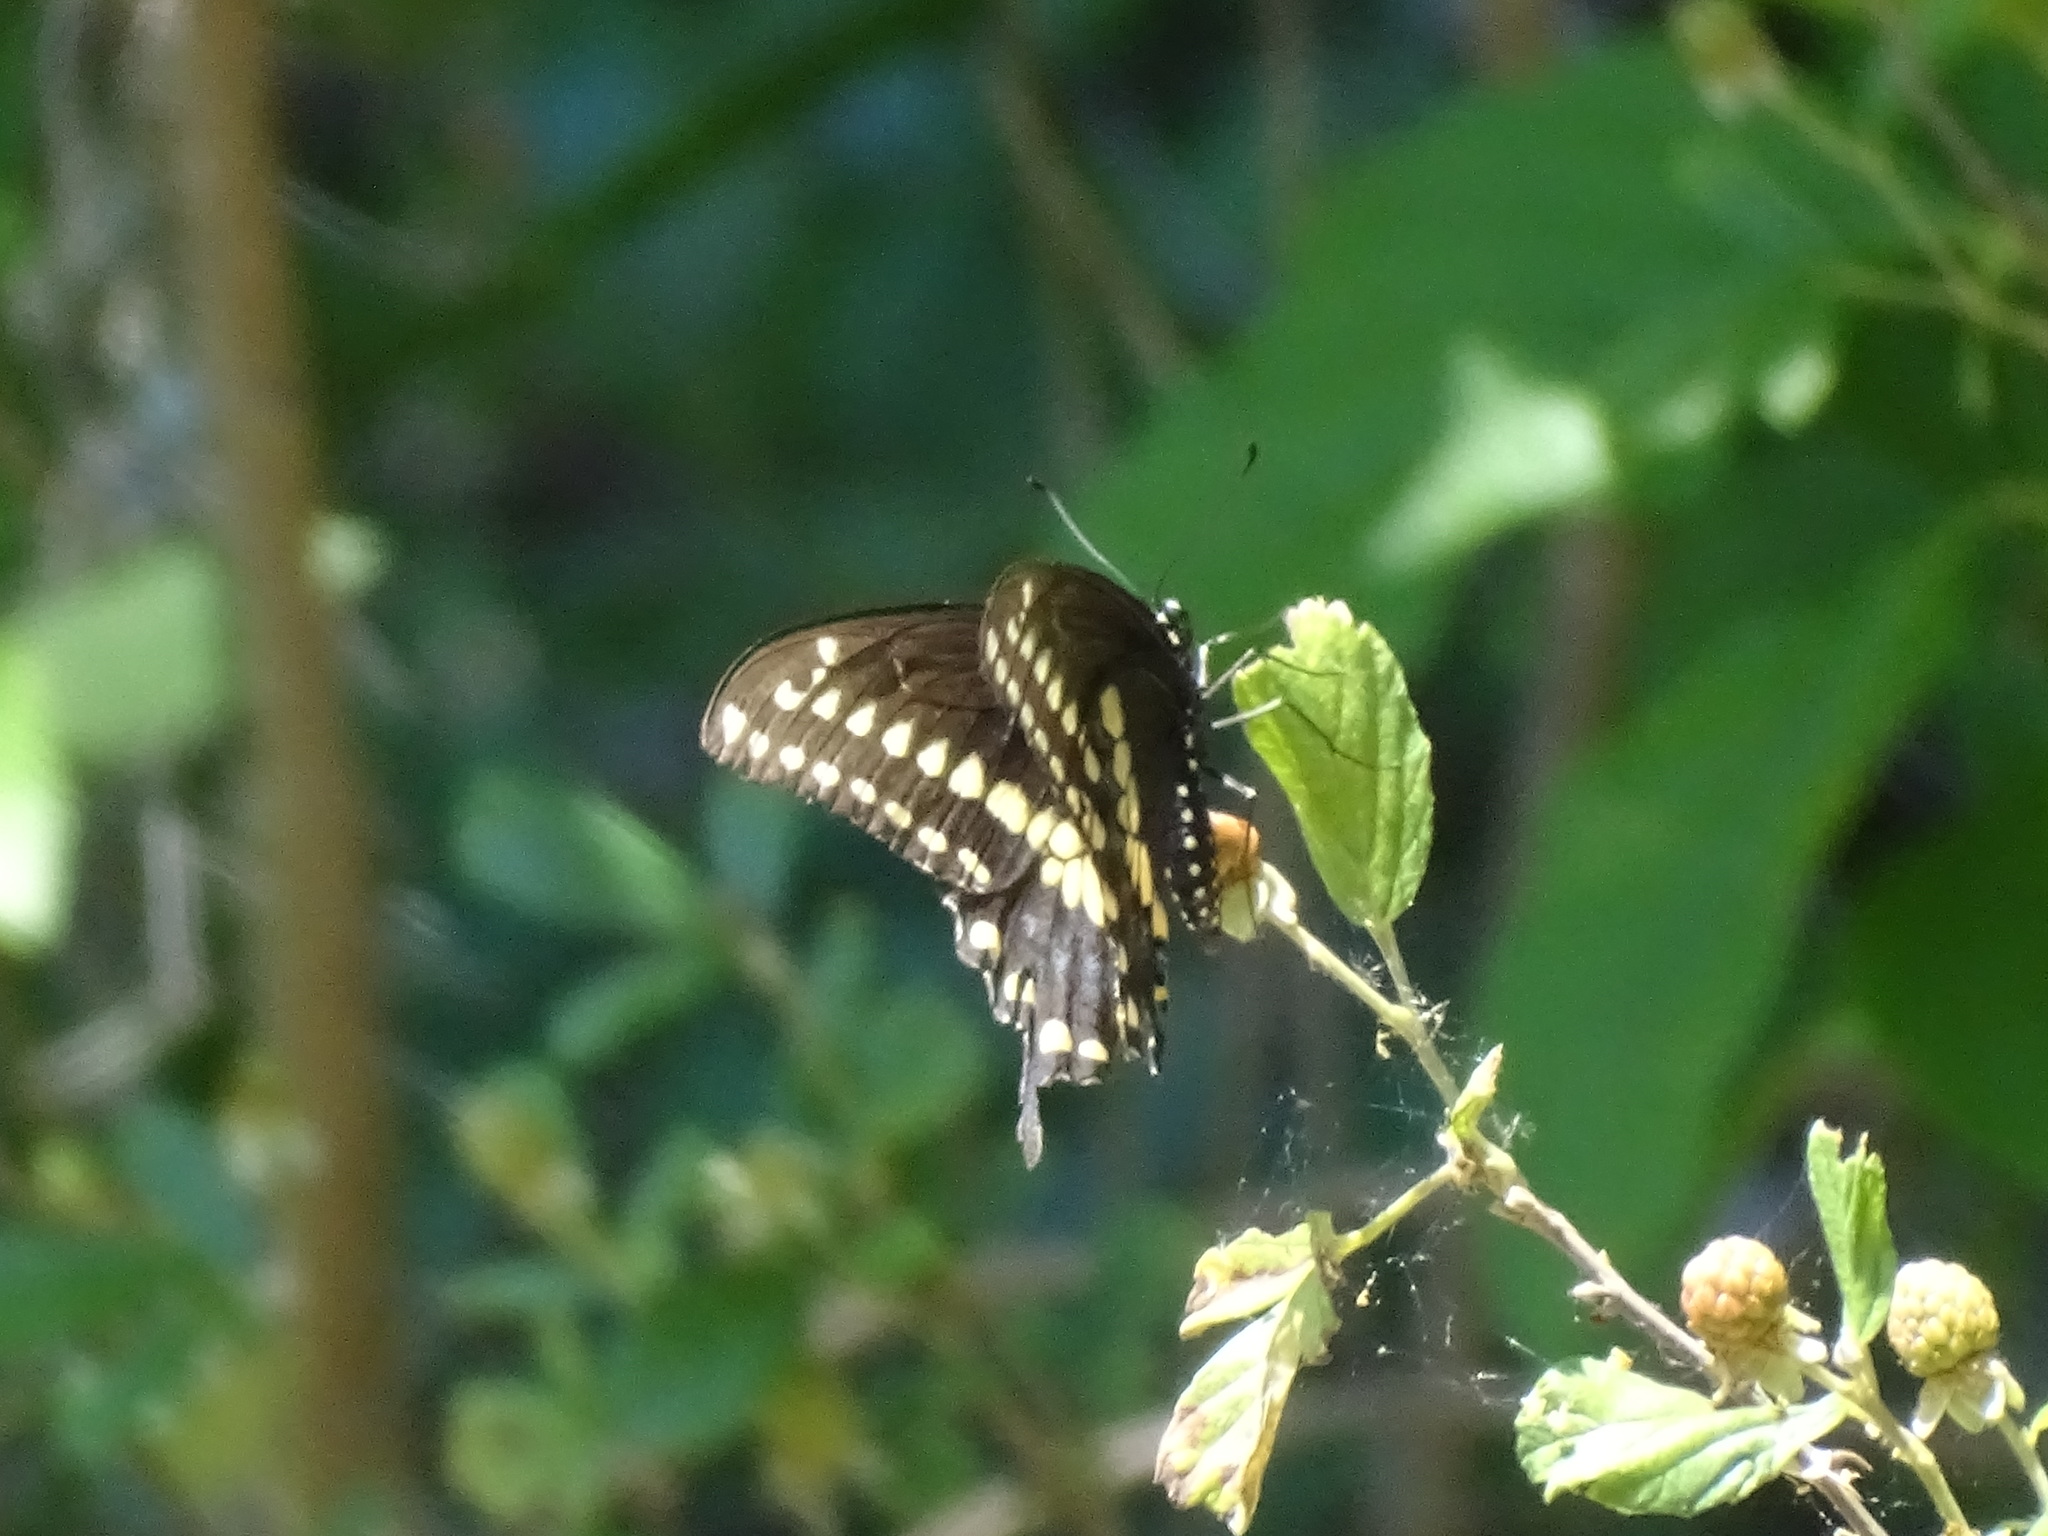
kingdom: Animalia
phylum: Arthropoda
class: Insecta
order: Lepidoptera
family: Papilionidae
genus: Papilio
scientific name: Papilio polyxenes
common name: Black swallowtail
